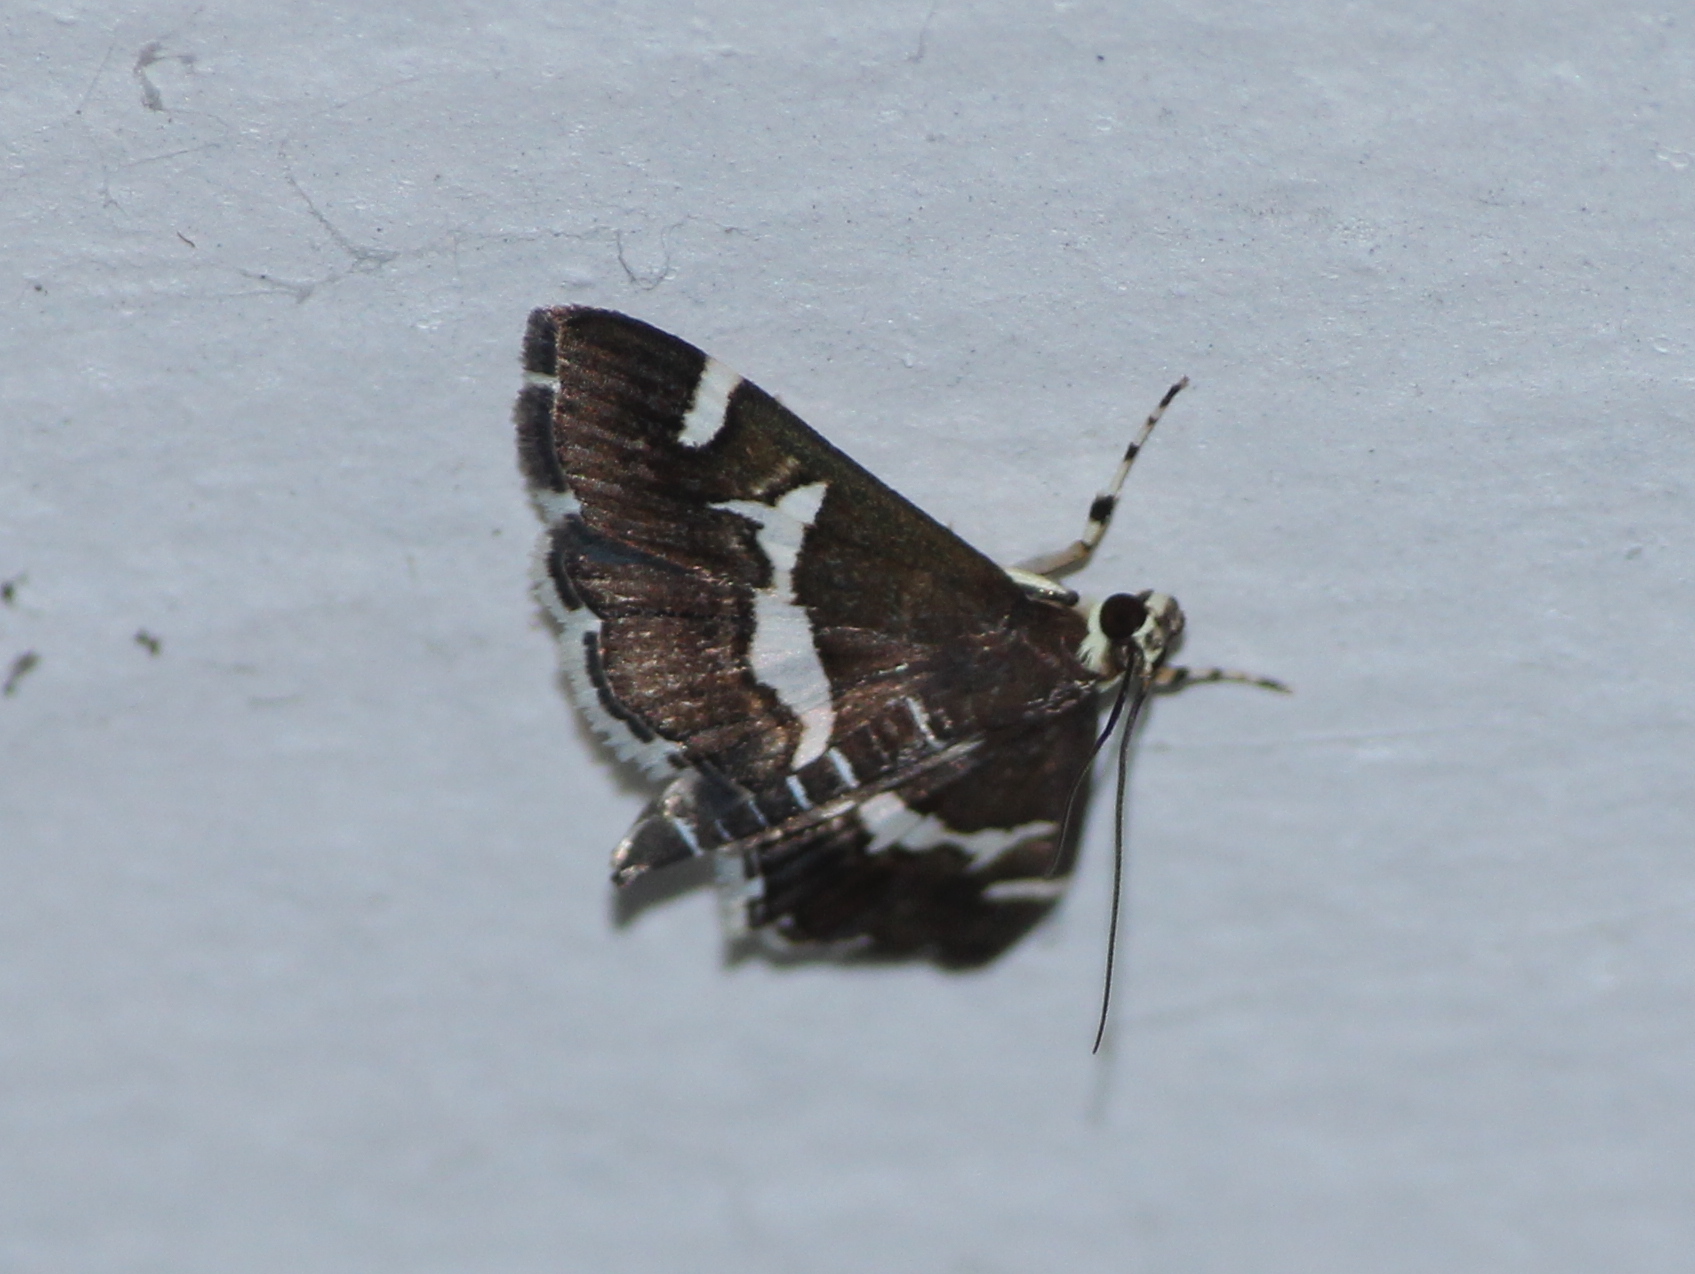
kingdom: Animalia
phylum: Arthropoda
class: Insecta
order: Lepidoptera
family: Crambidae
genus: Spoladea
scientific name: Spoladea recurvalis
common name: Beet webworm moth
